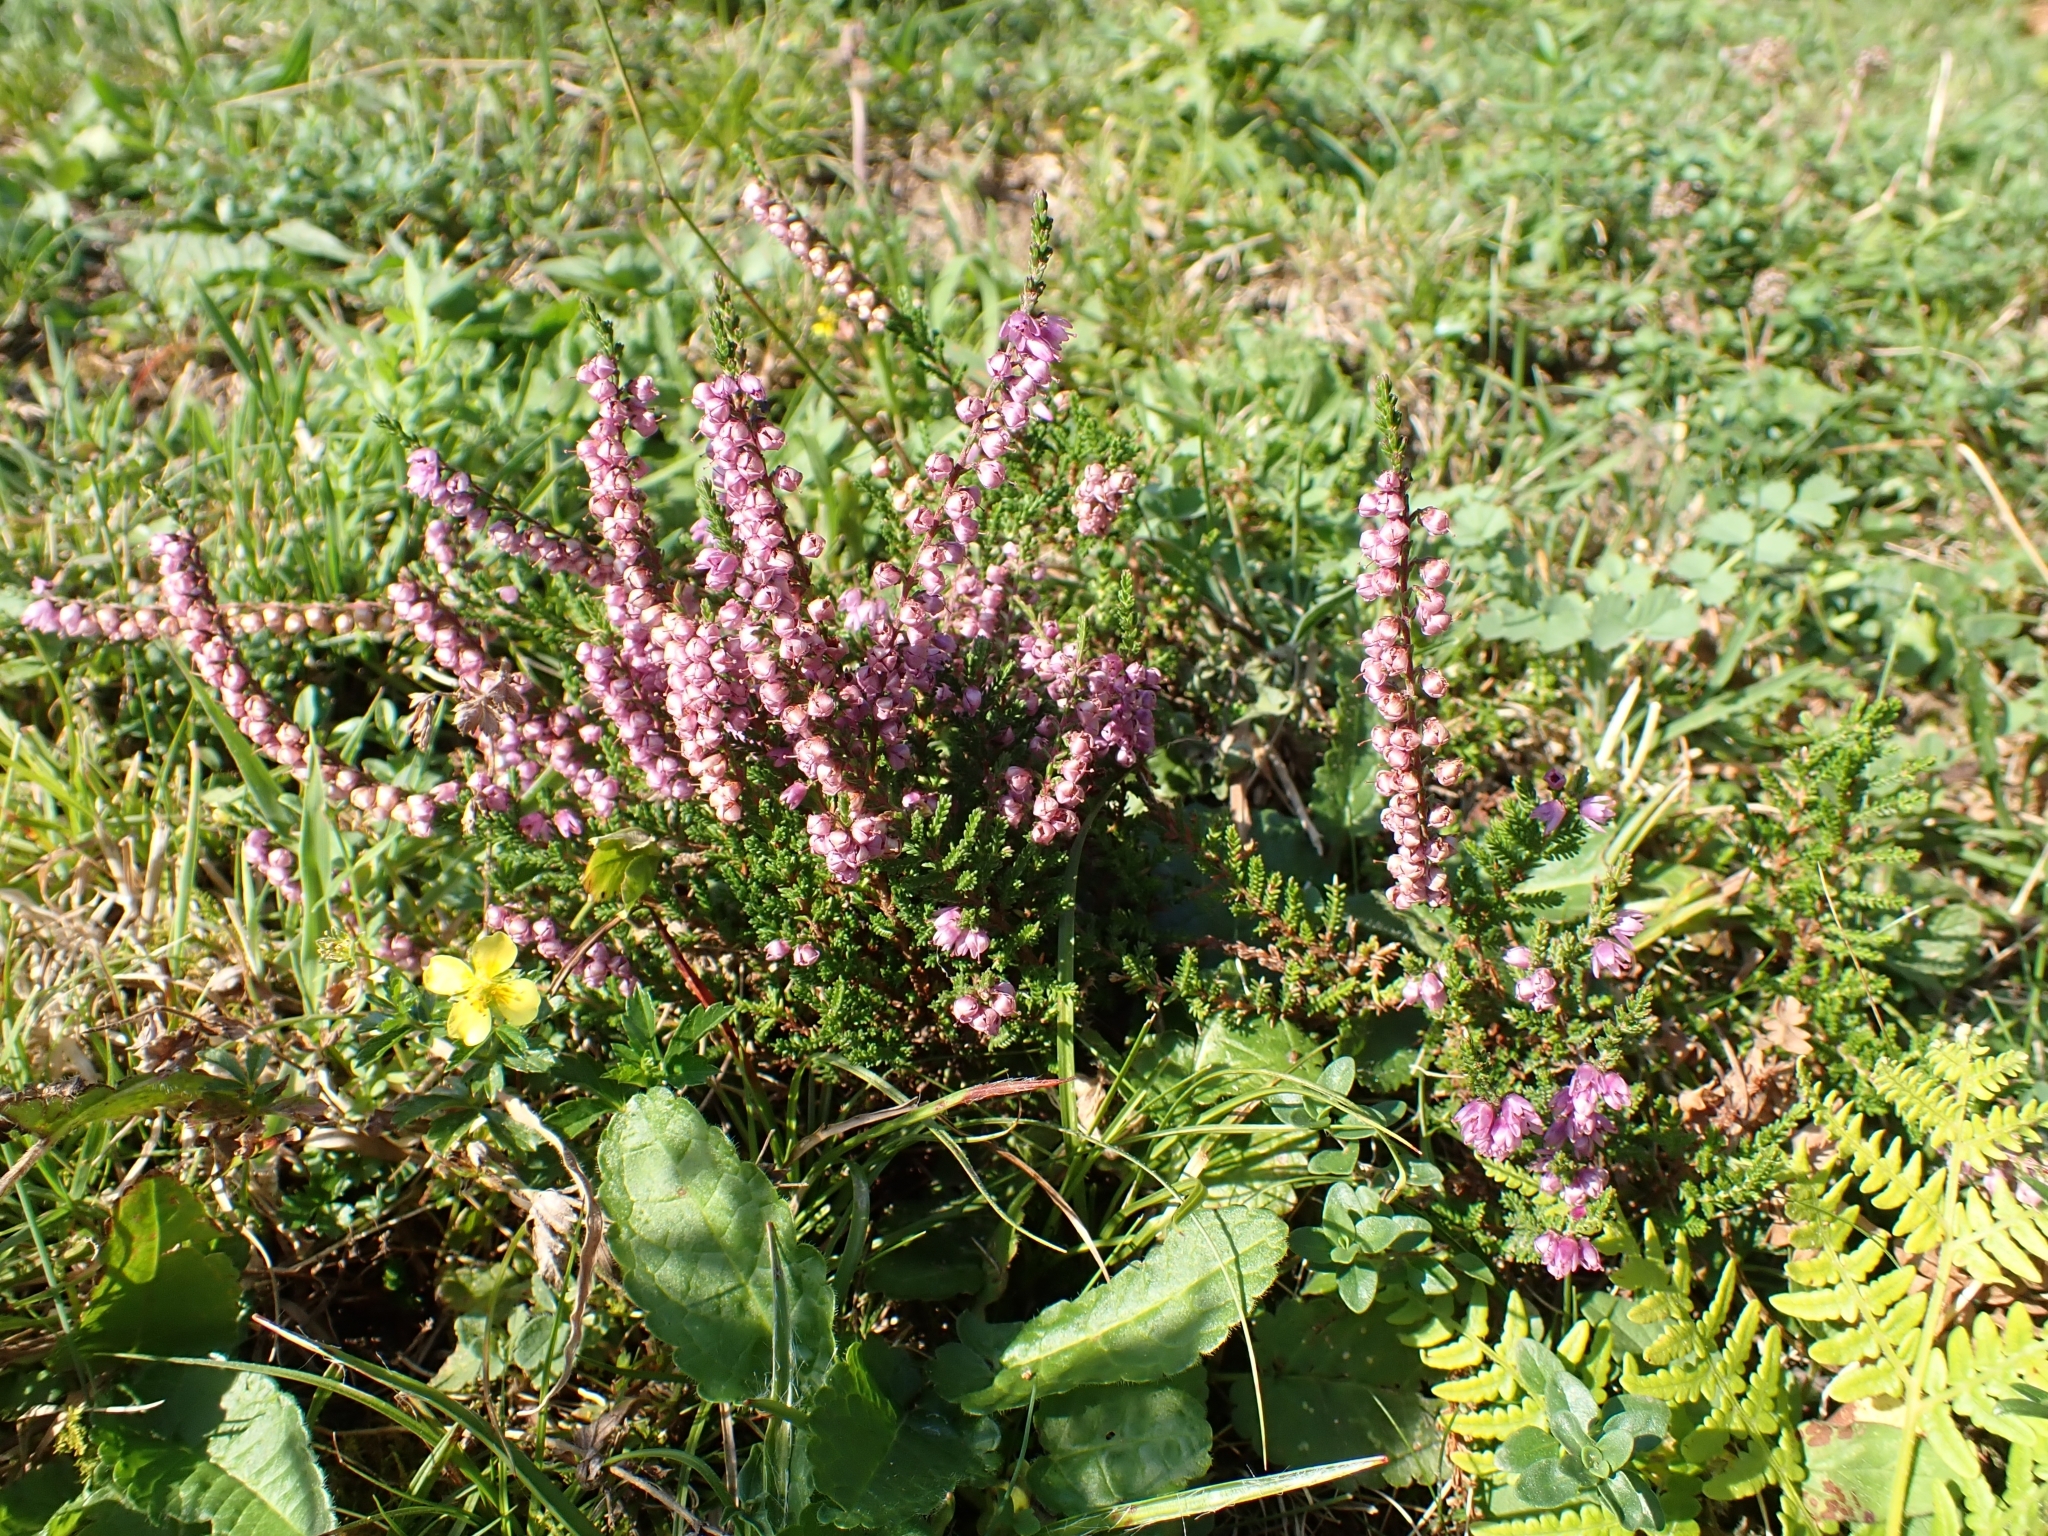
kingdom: Plantae
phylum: Tracheophyta
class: Magnoliopsida
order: Ericales
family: Ericaceae
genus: Calluna
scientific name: Calluna vulgaris
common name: Heather
